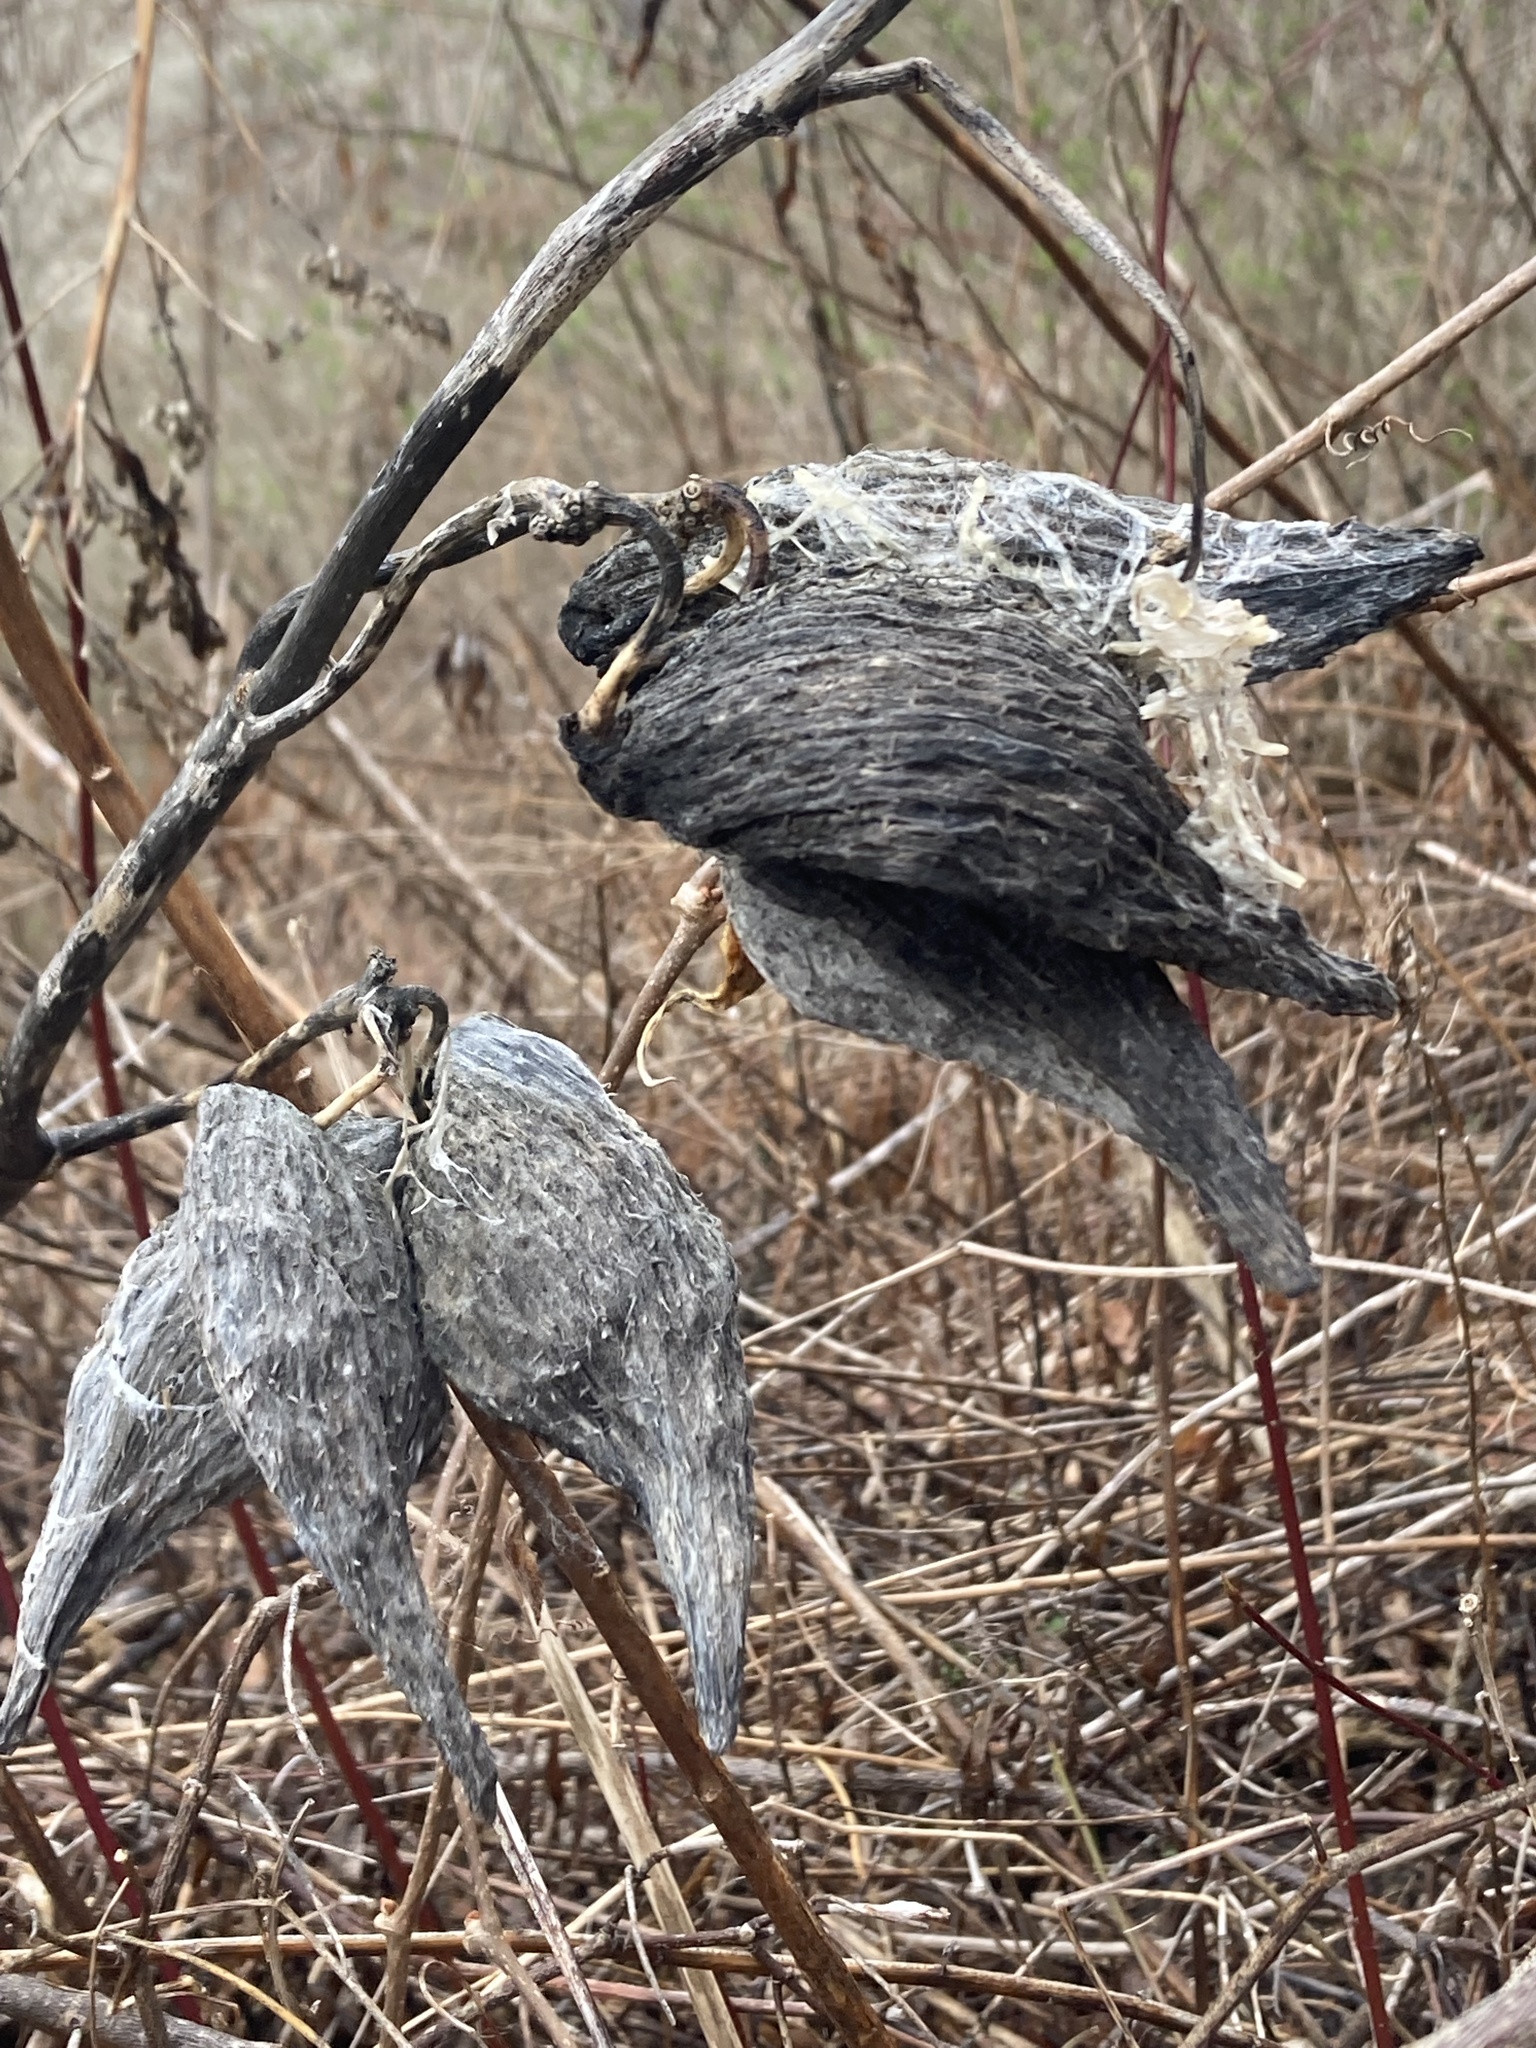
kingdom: Plantae
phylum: Tracheophyta
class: Magnoliopsida
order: Gentianales
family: Apocynaceae
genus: Asclepias
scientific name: Asclepias syriaca
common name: Common milkweed
